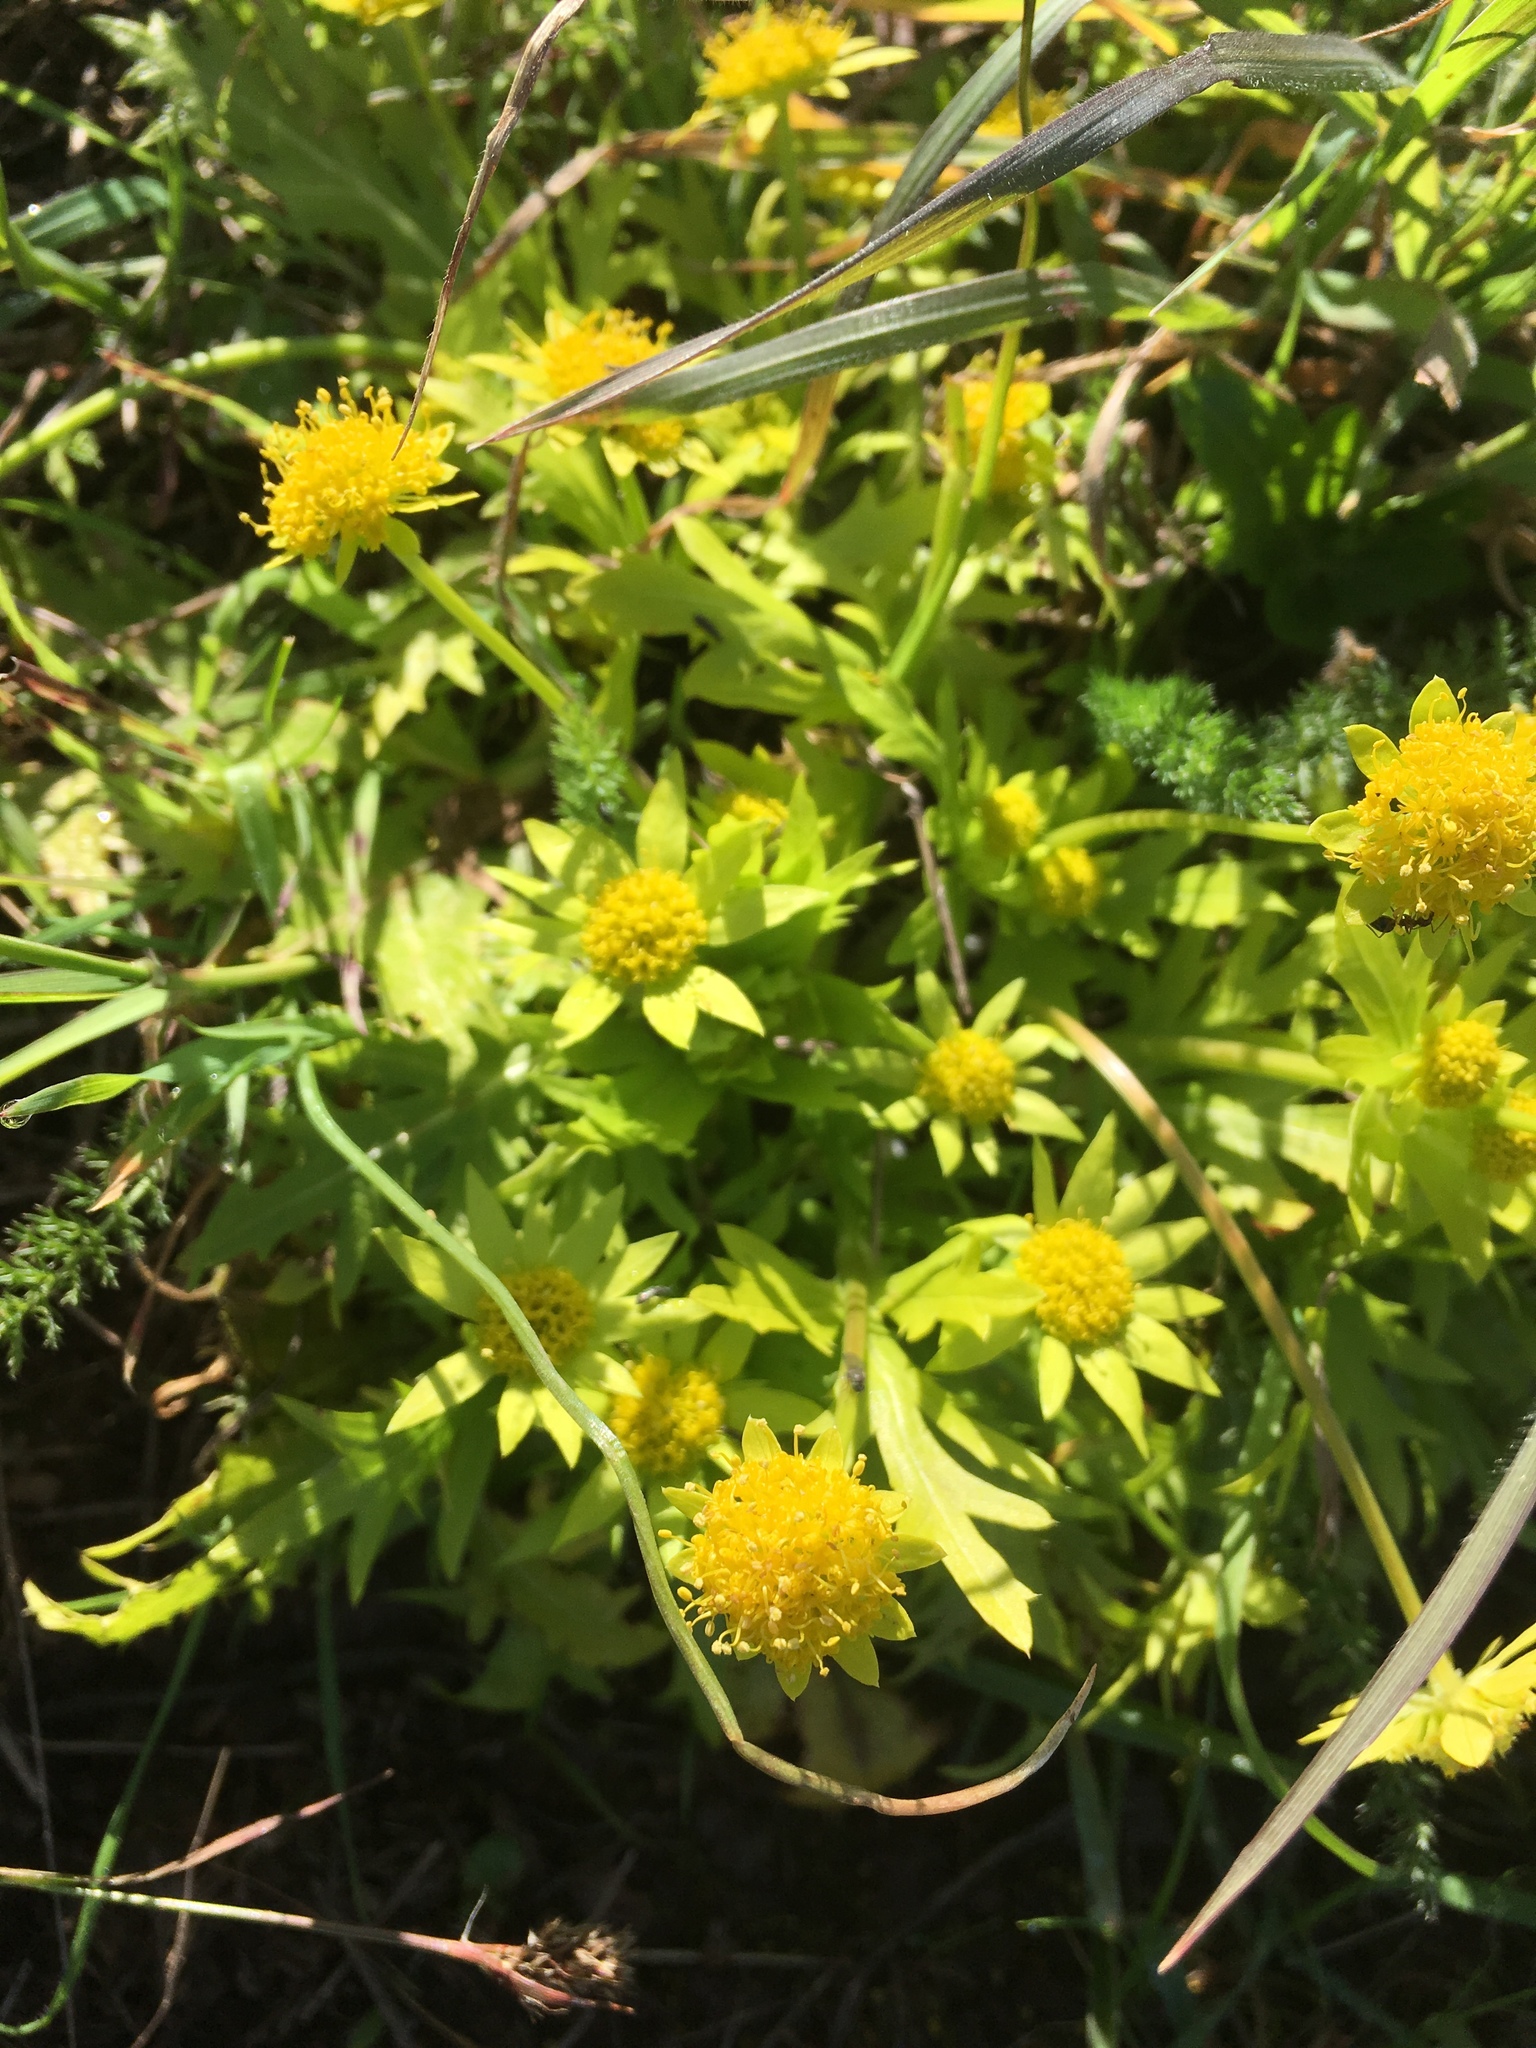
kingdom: Plantae
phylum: Tracheophyta
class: Magnoliopsida
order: Apiales
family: Apiaceae
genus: Sanicula
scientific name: Sanicula arctopoides
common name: Footsteps-of-spring
